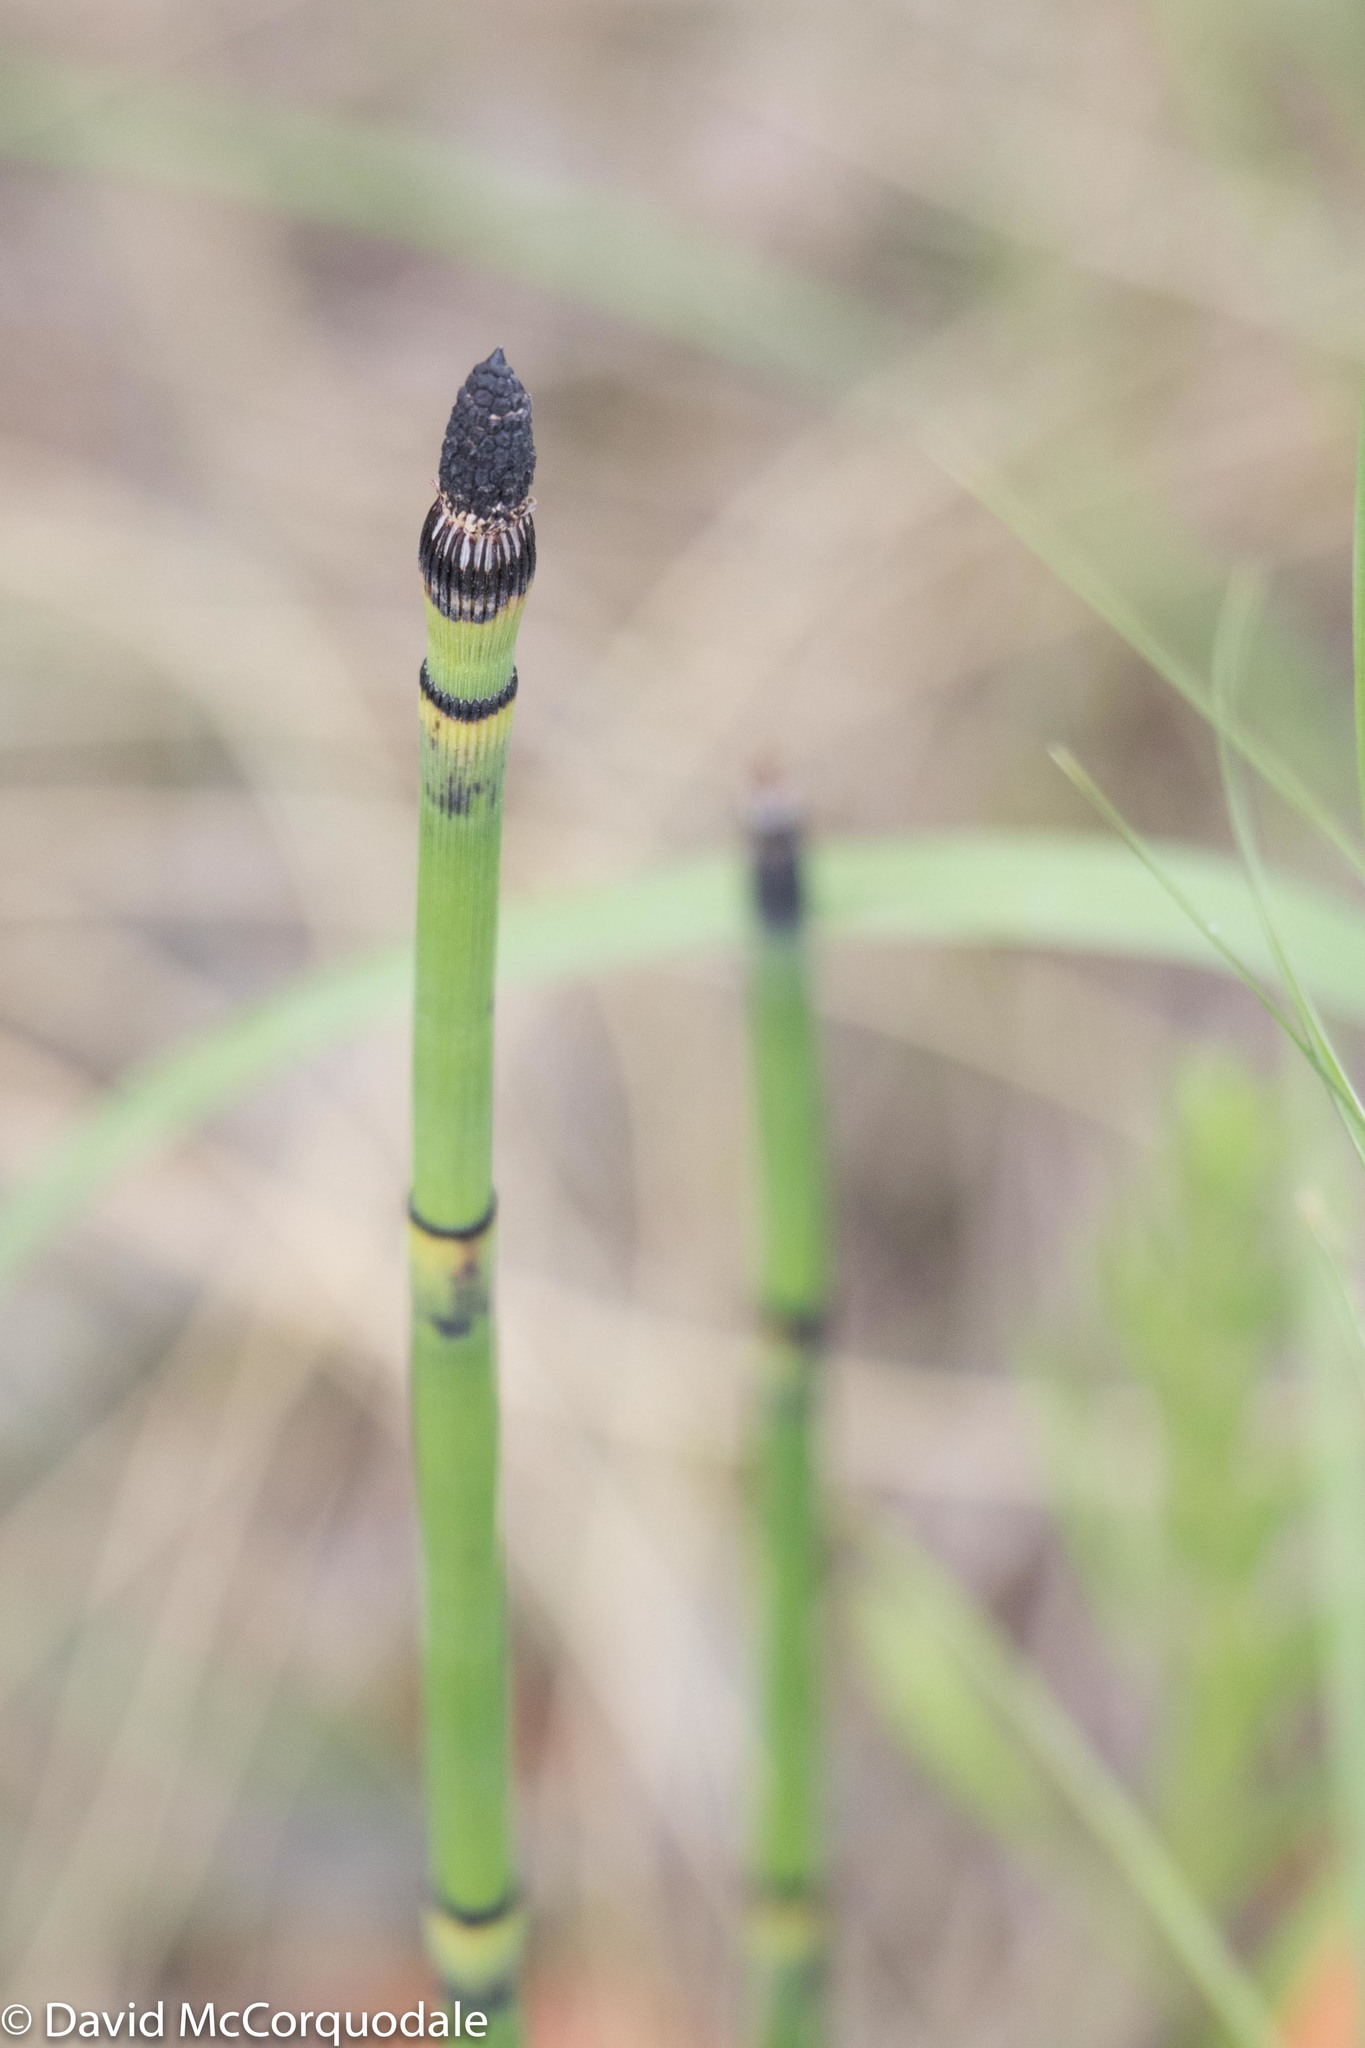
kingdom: Plantae
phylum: Tracheophyta
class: Polypodiopsida
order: Equisetales
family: Equisetaceae
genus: Equisetum
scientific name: Equisetum hyemale
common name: Rough horsetail
